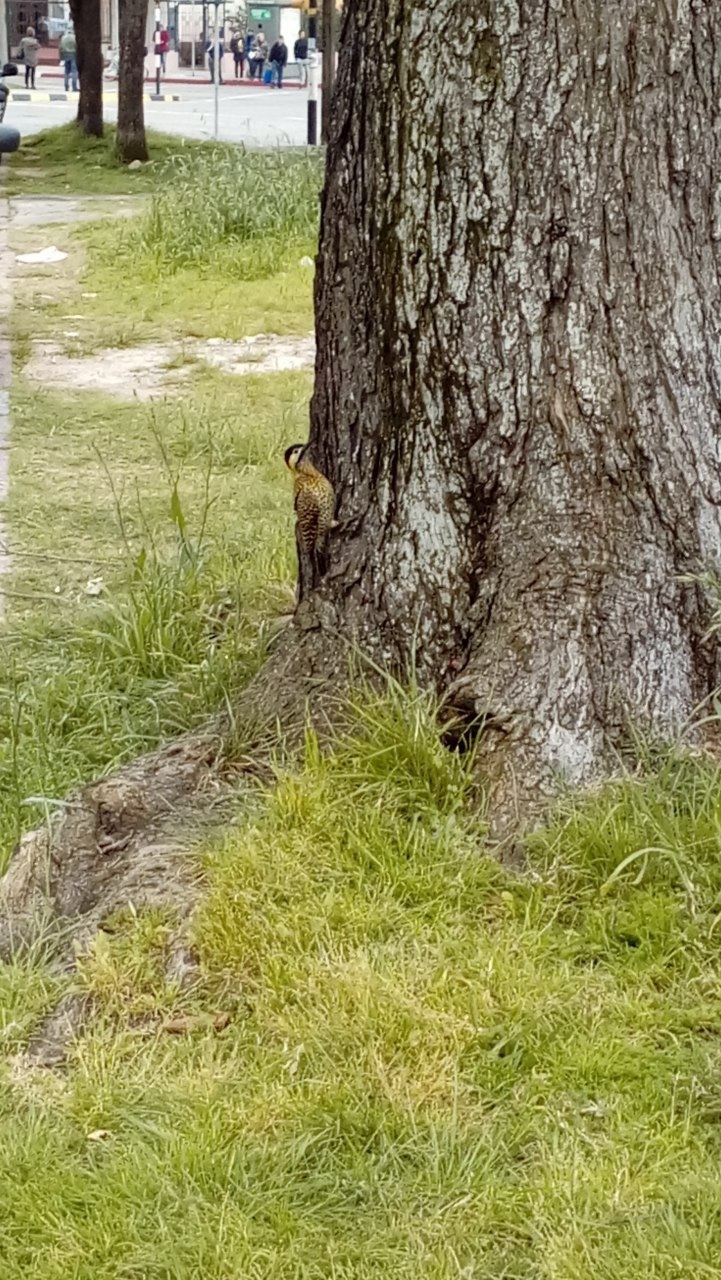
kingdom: Animalia
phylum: Chordata
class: Aves
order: Piciformes
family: Picidae
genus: Colaptes
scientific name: Colaptes melanochloros
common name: Green-barred woodpecker
